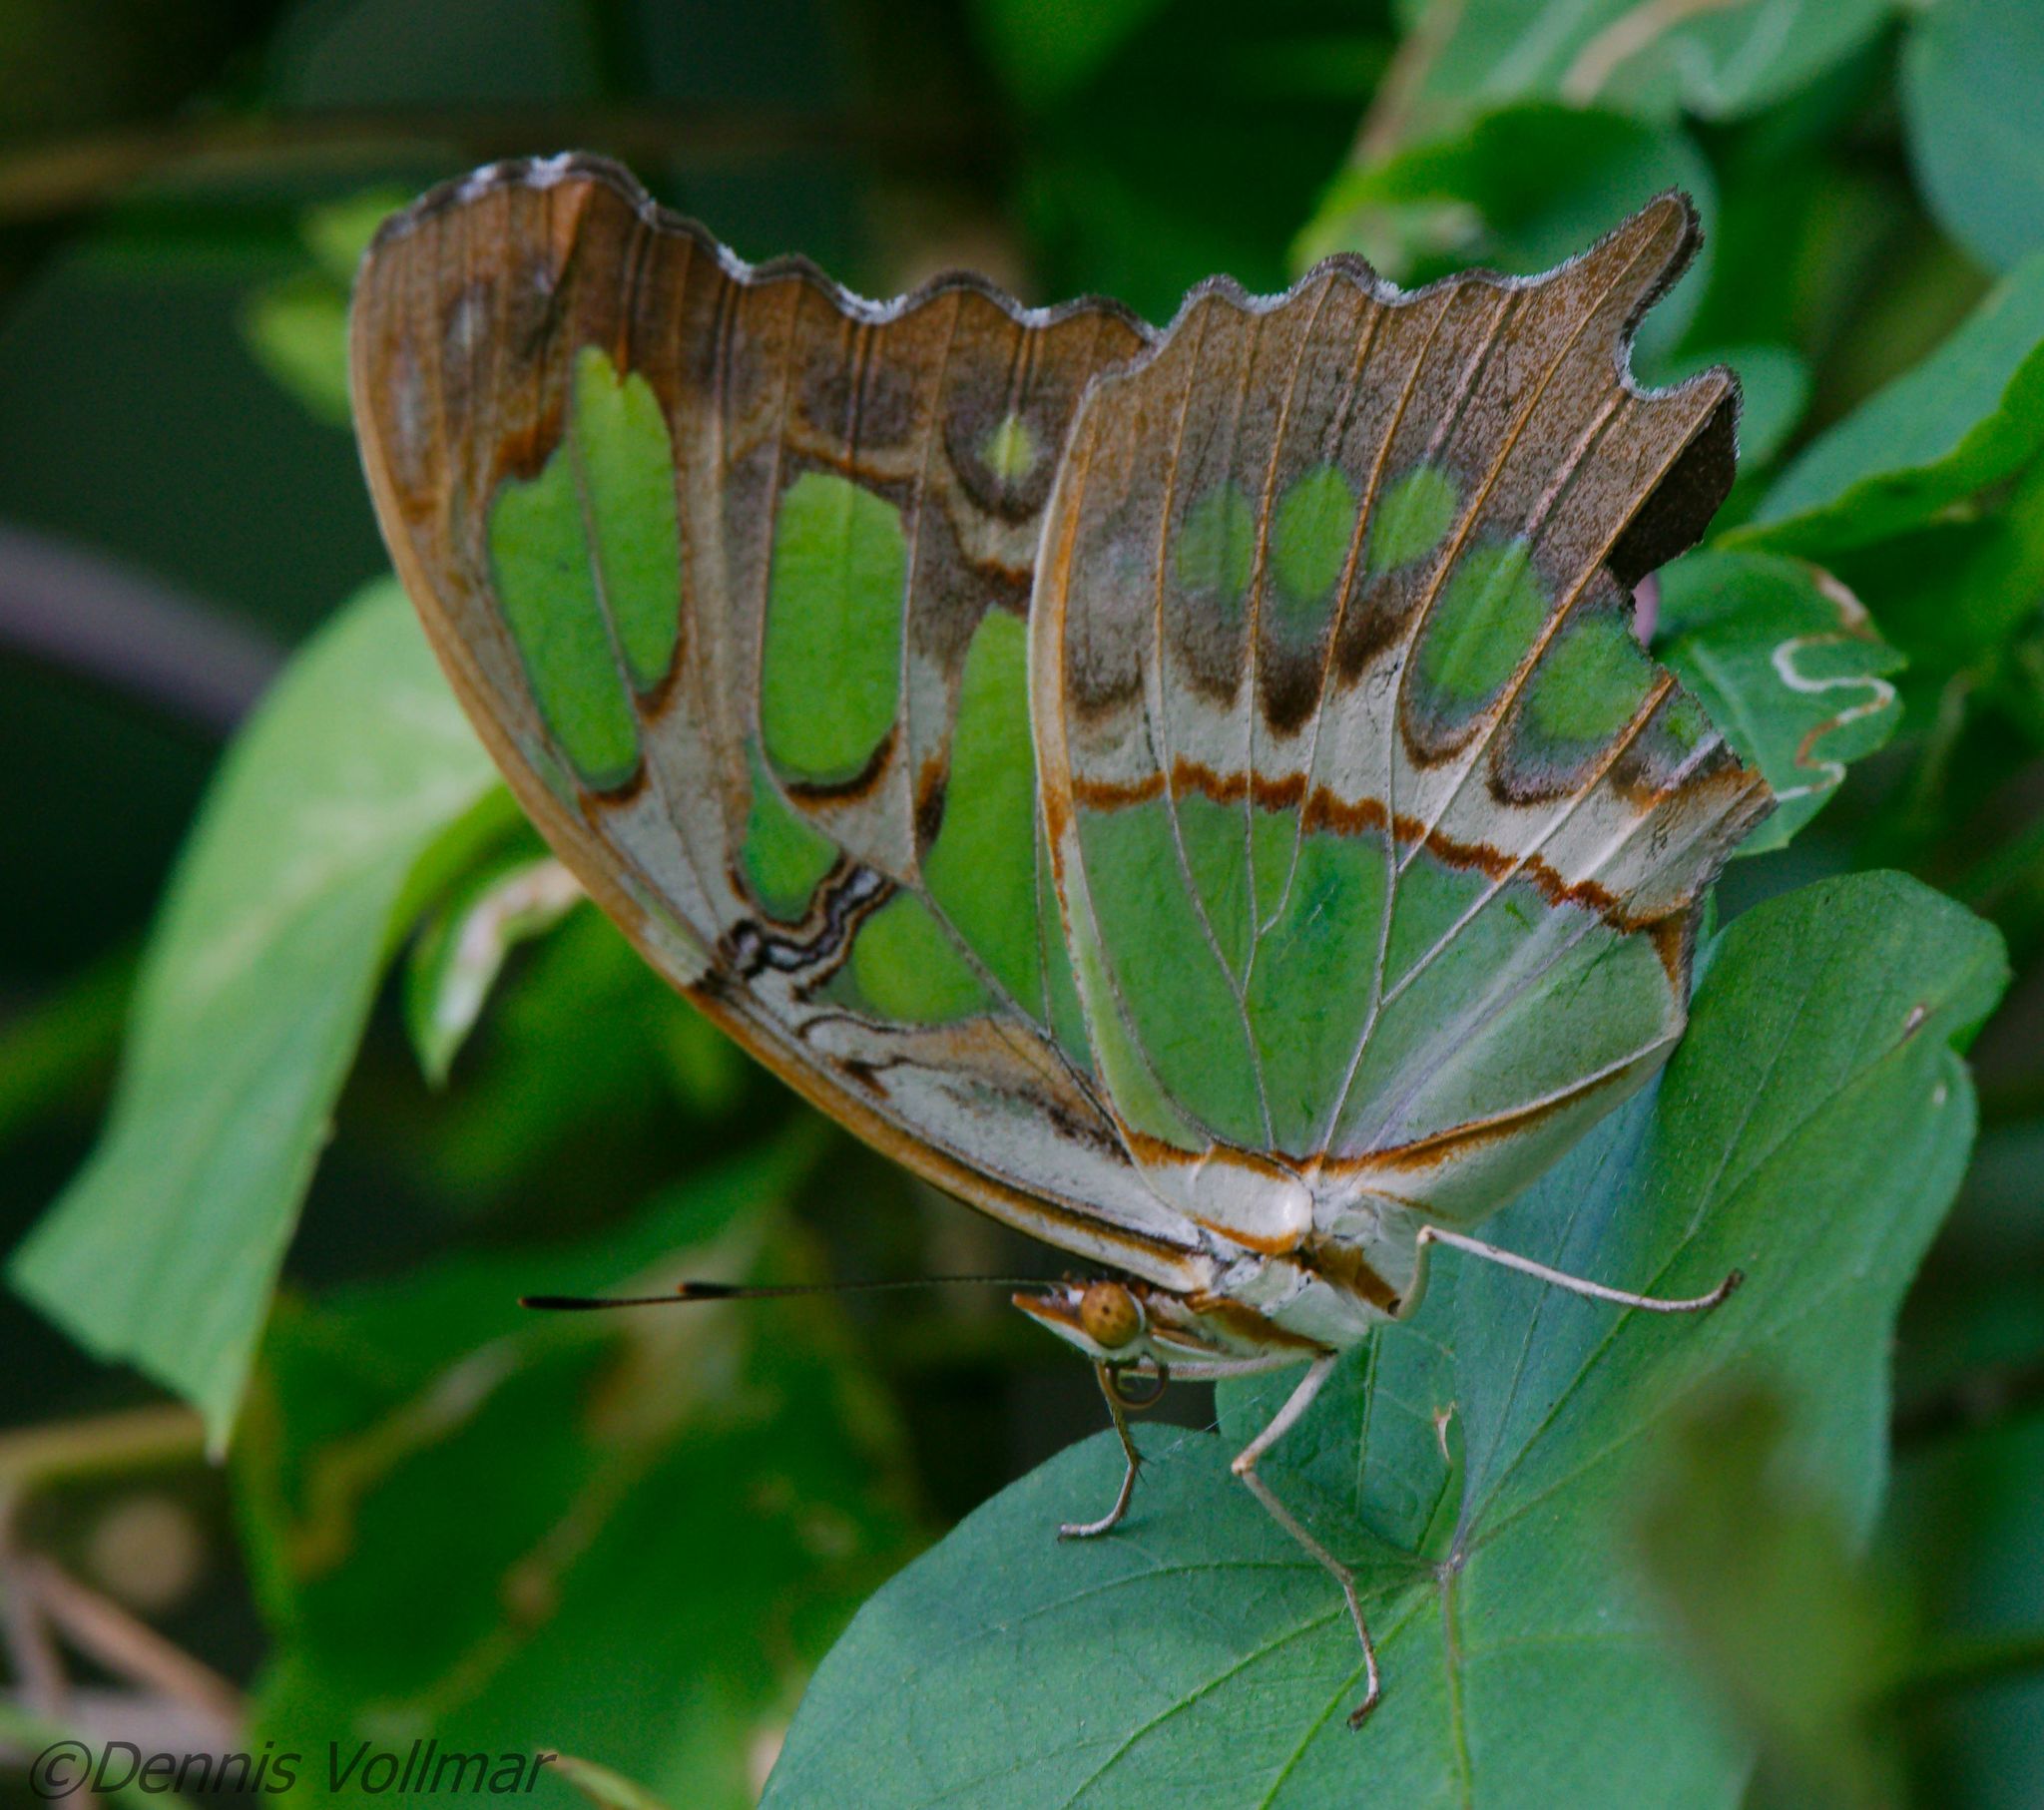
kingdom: Animalia
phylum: Arthropoda
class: Insecta
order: Lepidoptera
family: Nymphalidae
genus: Siproeta
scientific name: Siproeta stelenes
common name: Malachite
